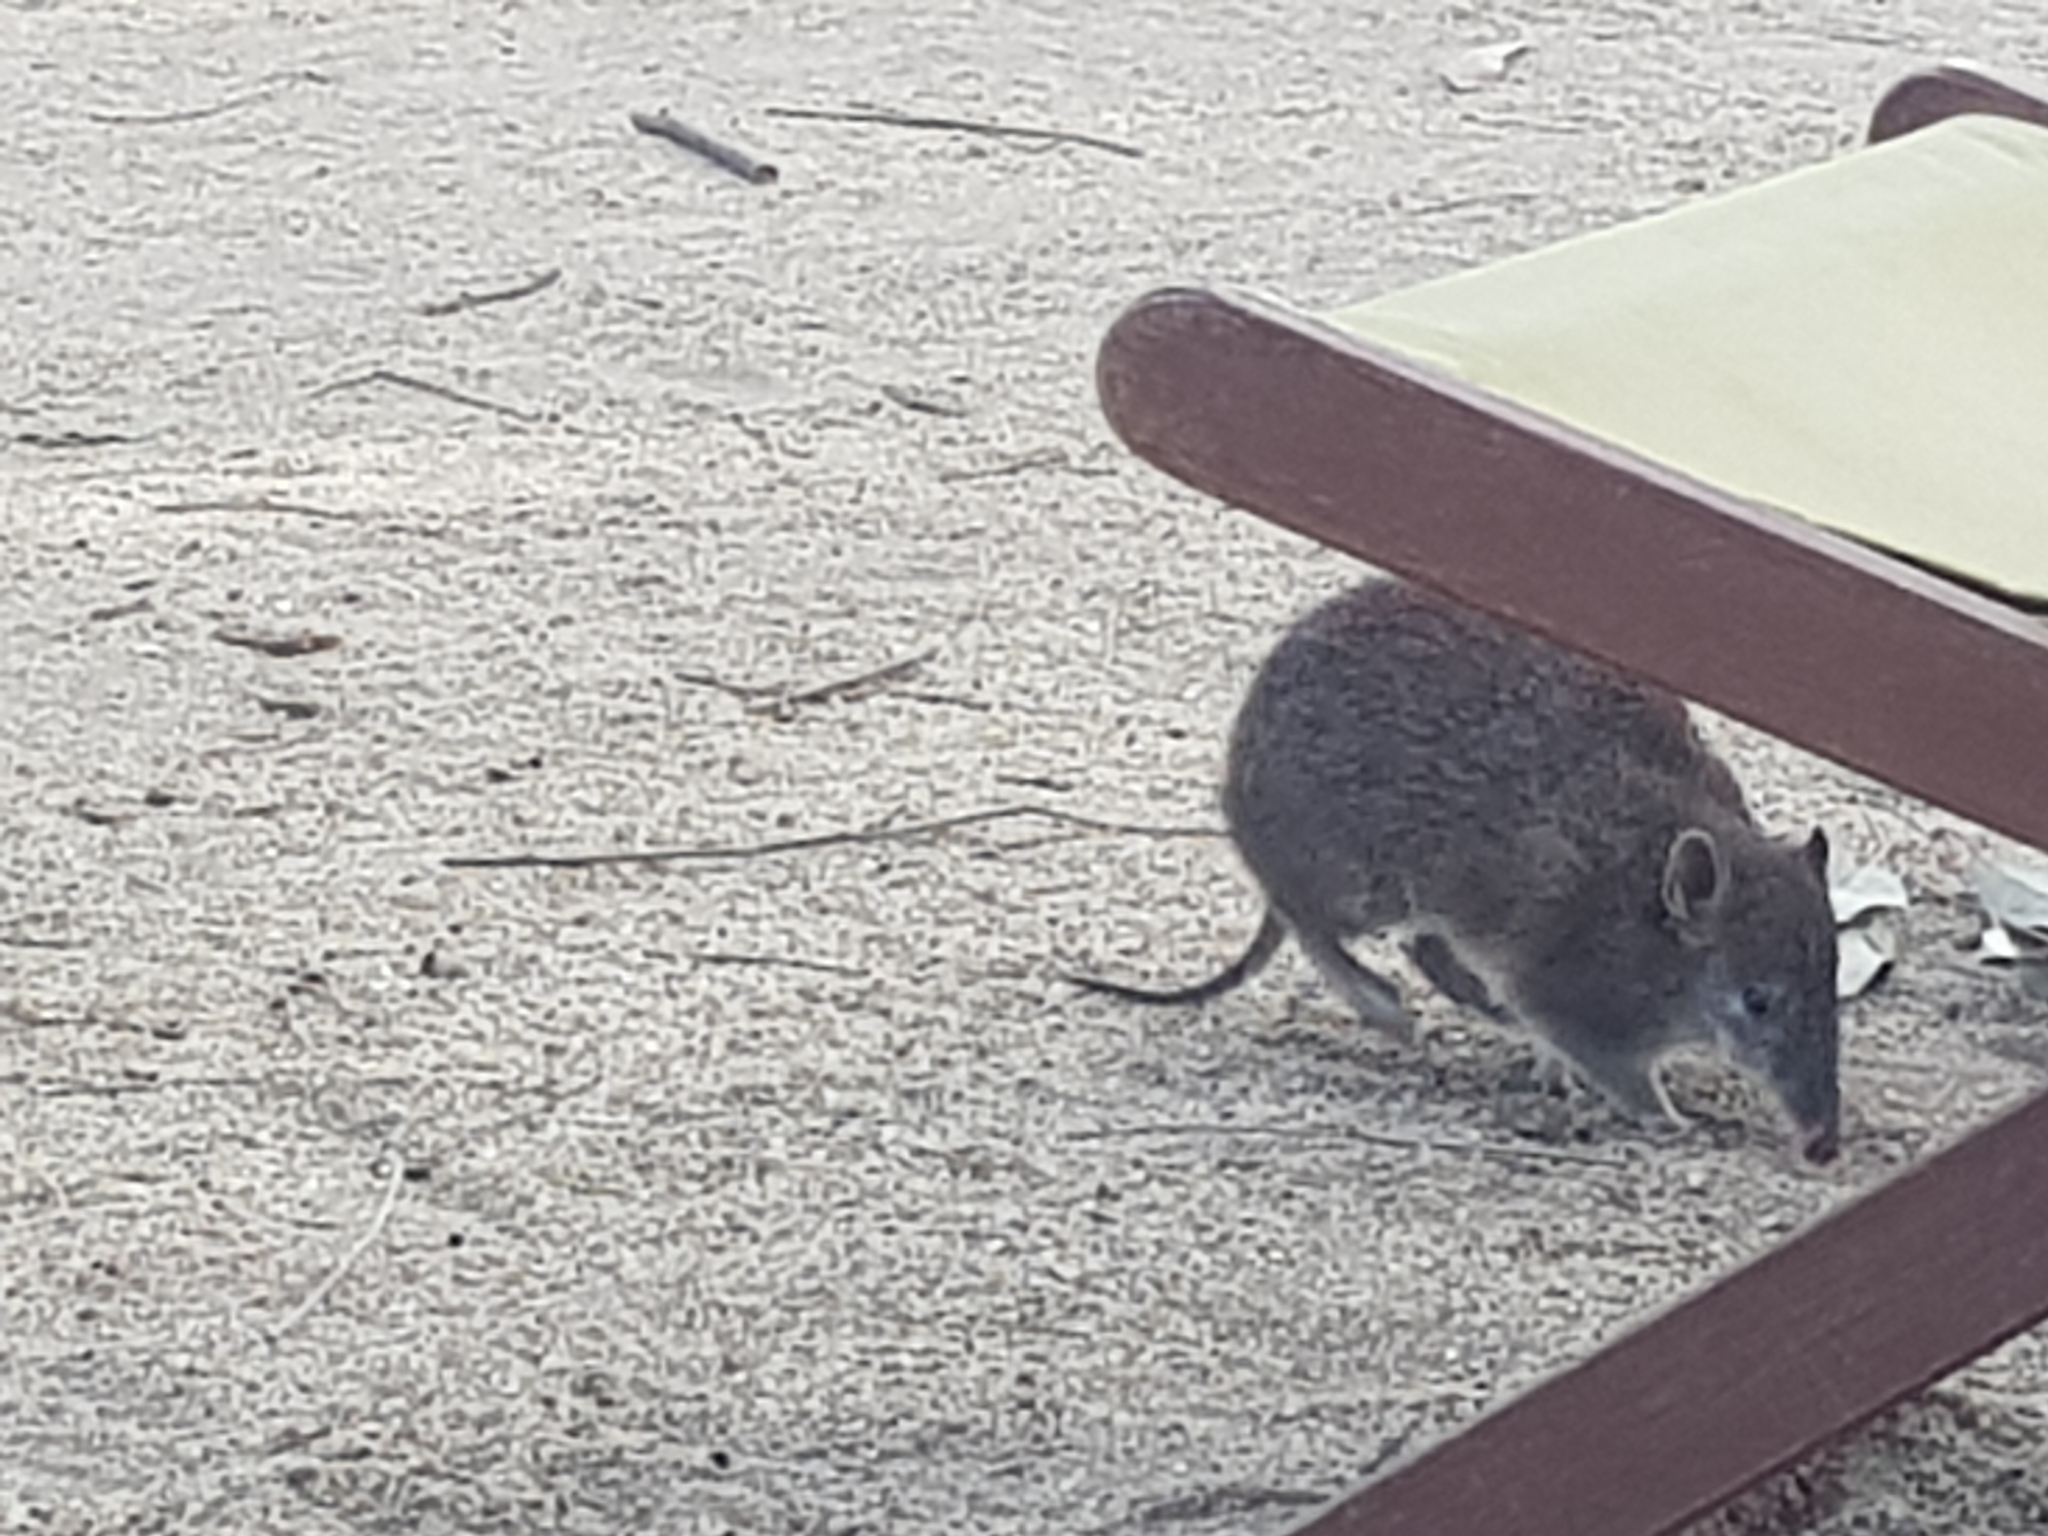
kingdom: Animalia
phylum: Chordata
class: Mammalia
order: Peramelemorphia
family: Peramelidae
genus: Isoodon
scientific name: Isoodon obesulus
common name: Southern brown bandicoot
